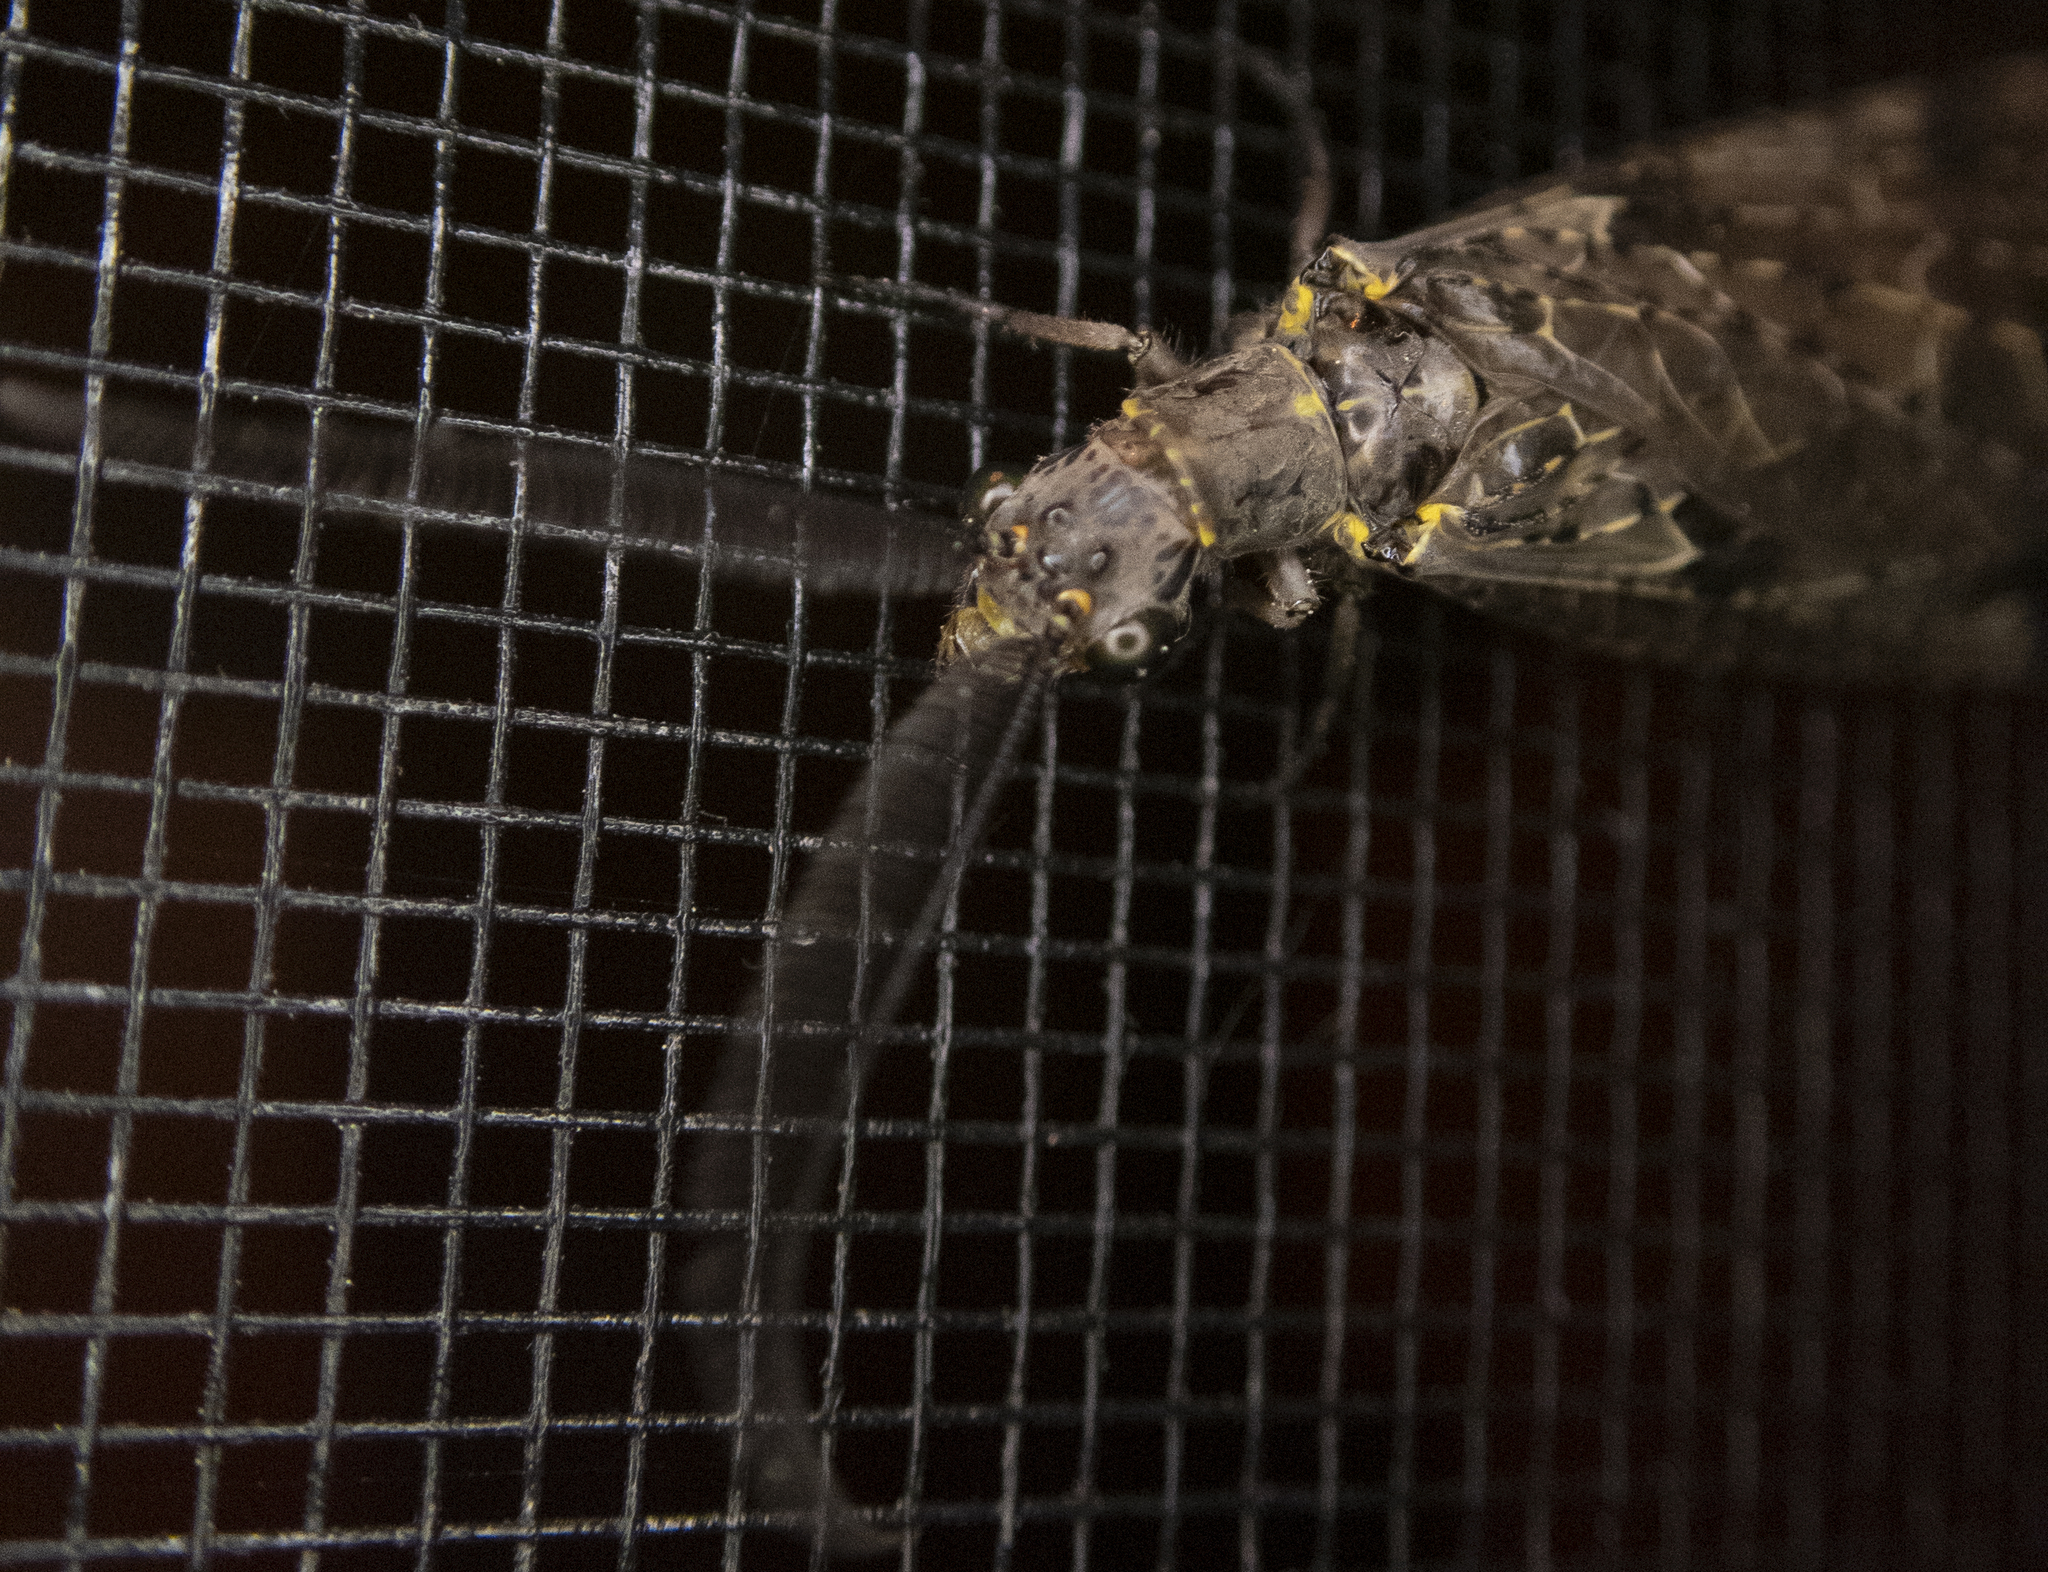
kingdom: Animalia
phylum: Arthropoda
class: Insecta
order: Megaloptera
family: Corydalidae
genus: Chauliodes
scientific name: Chauliodes rastricornis
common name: Spring fishfly
